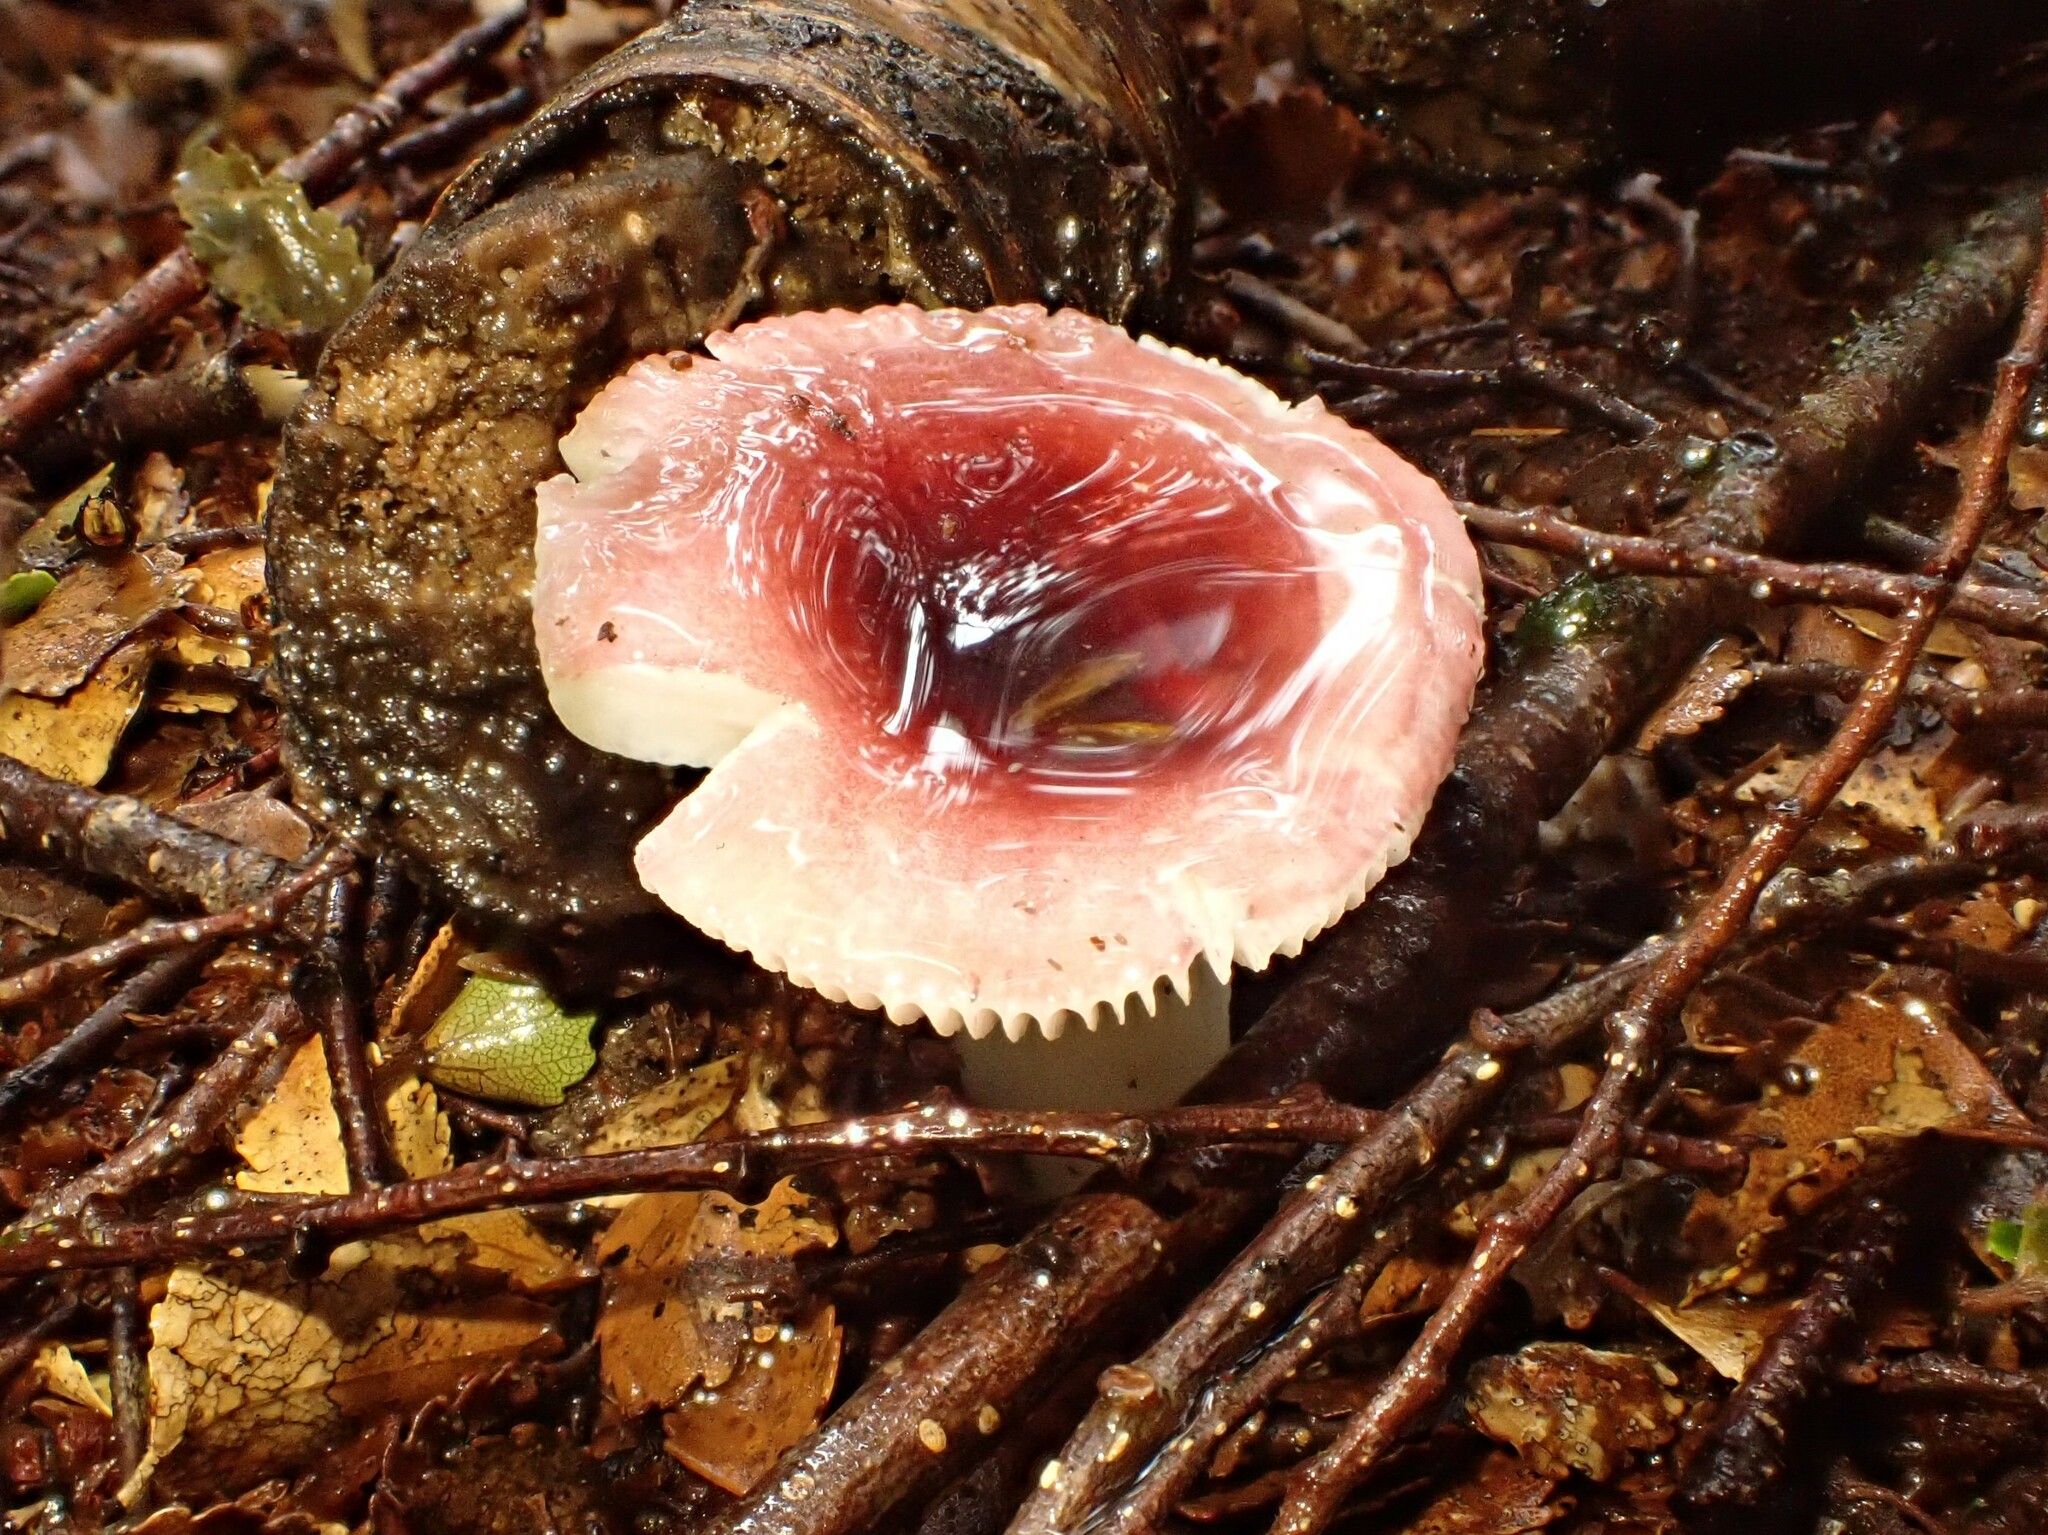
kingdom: Fungi
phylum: Basidiomycota
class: Agaricomycetes
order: Russulales
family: Russulaceae
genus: Russula
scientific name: Russula roseopileata
